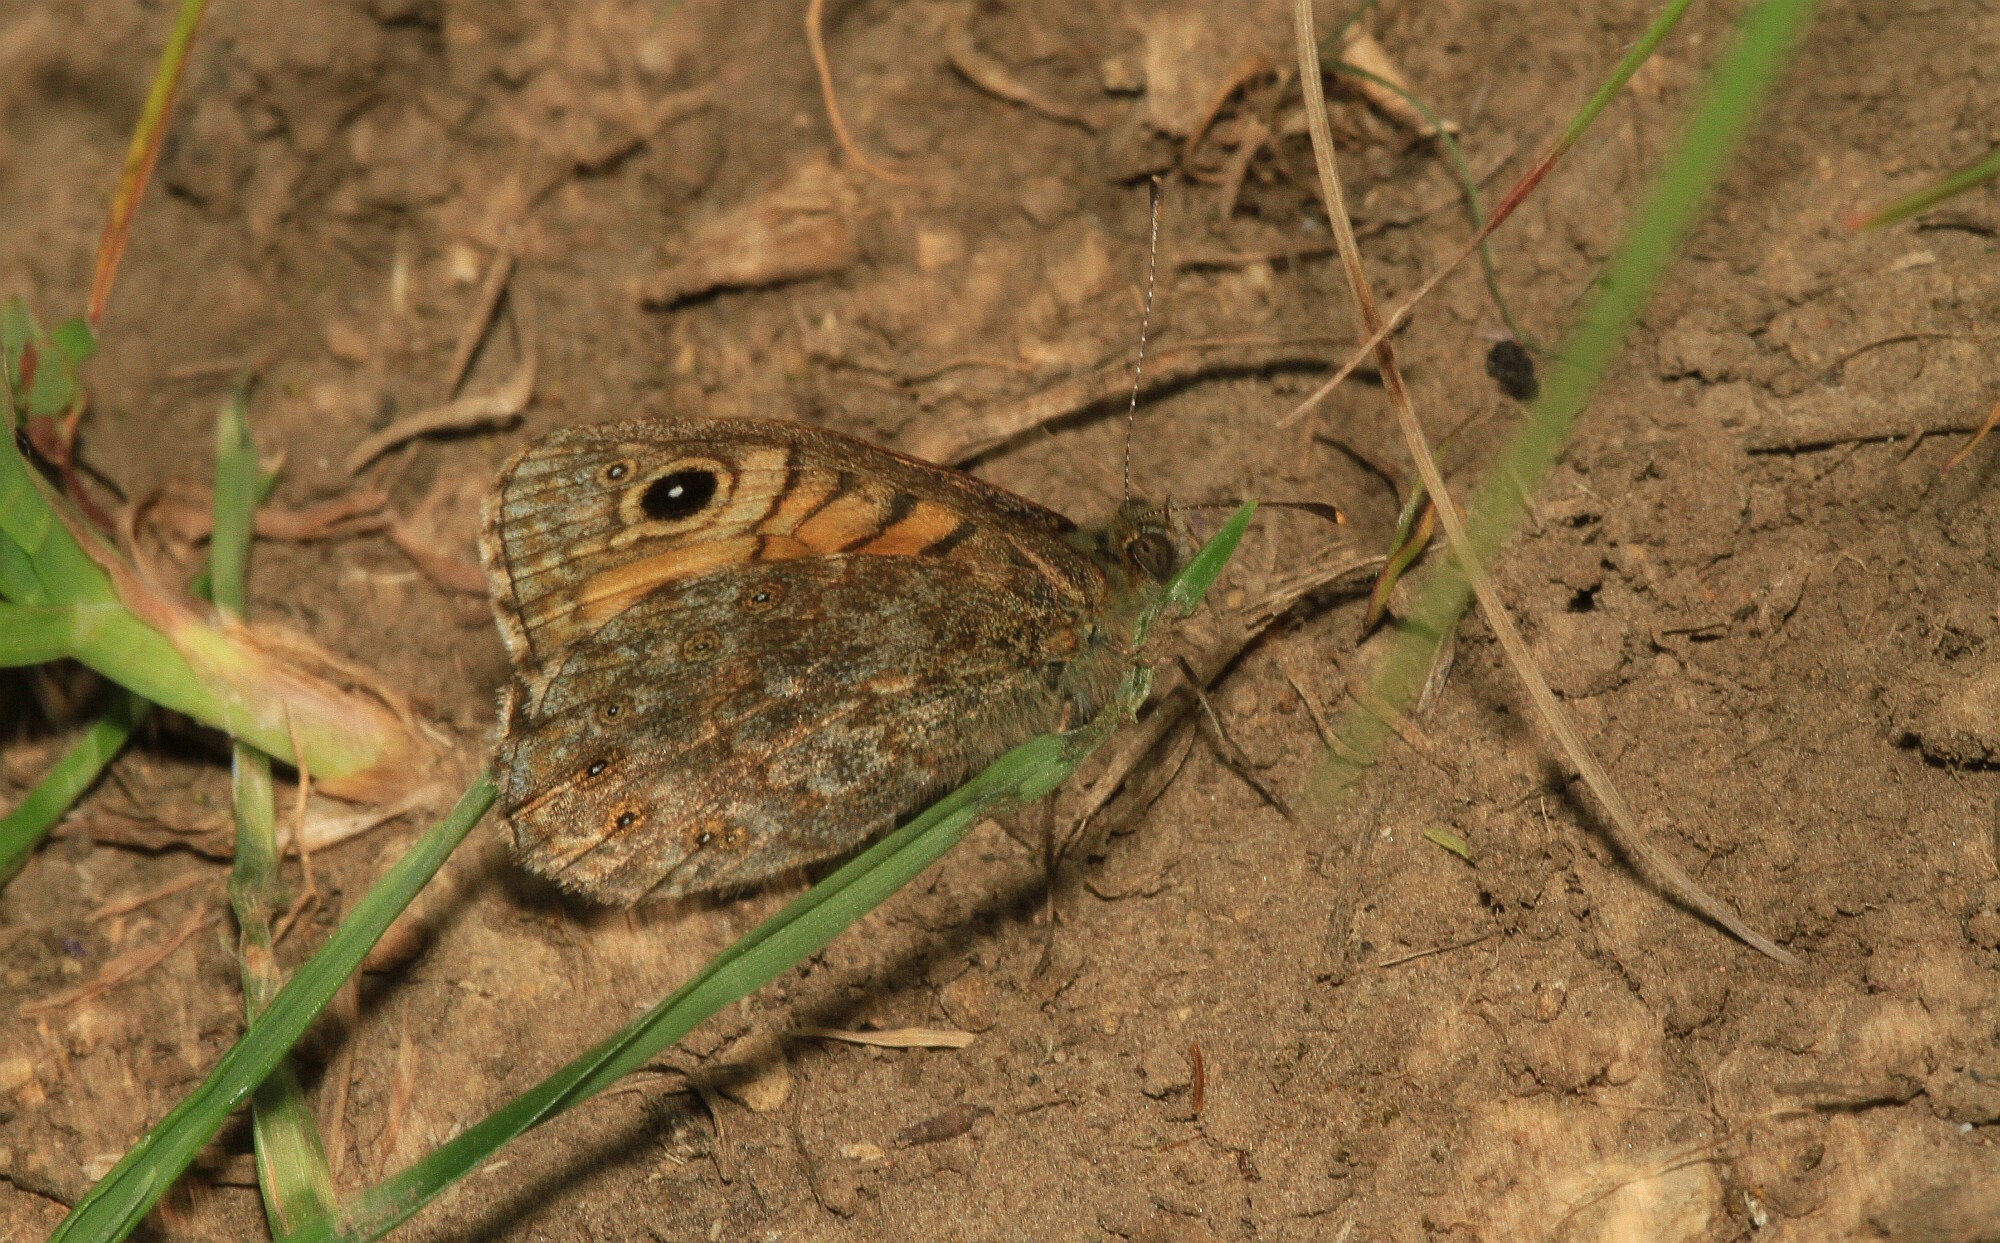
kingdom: Animalia
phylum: Arthropoda
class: Insecta
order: Lepidoptera
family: Nymphalidae
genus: Pararge
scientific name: Pararge Lasiommata megera
